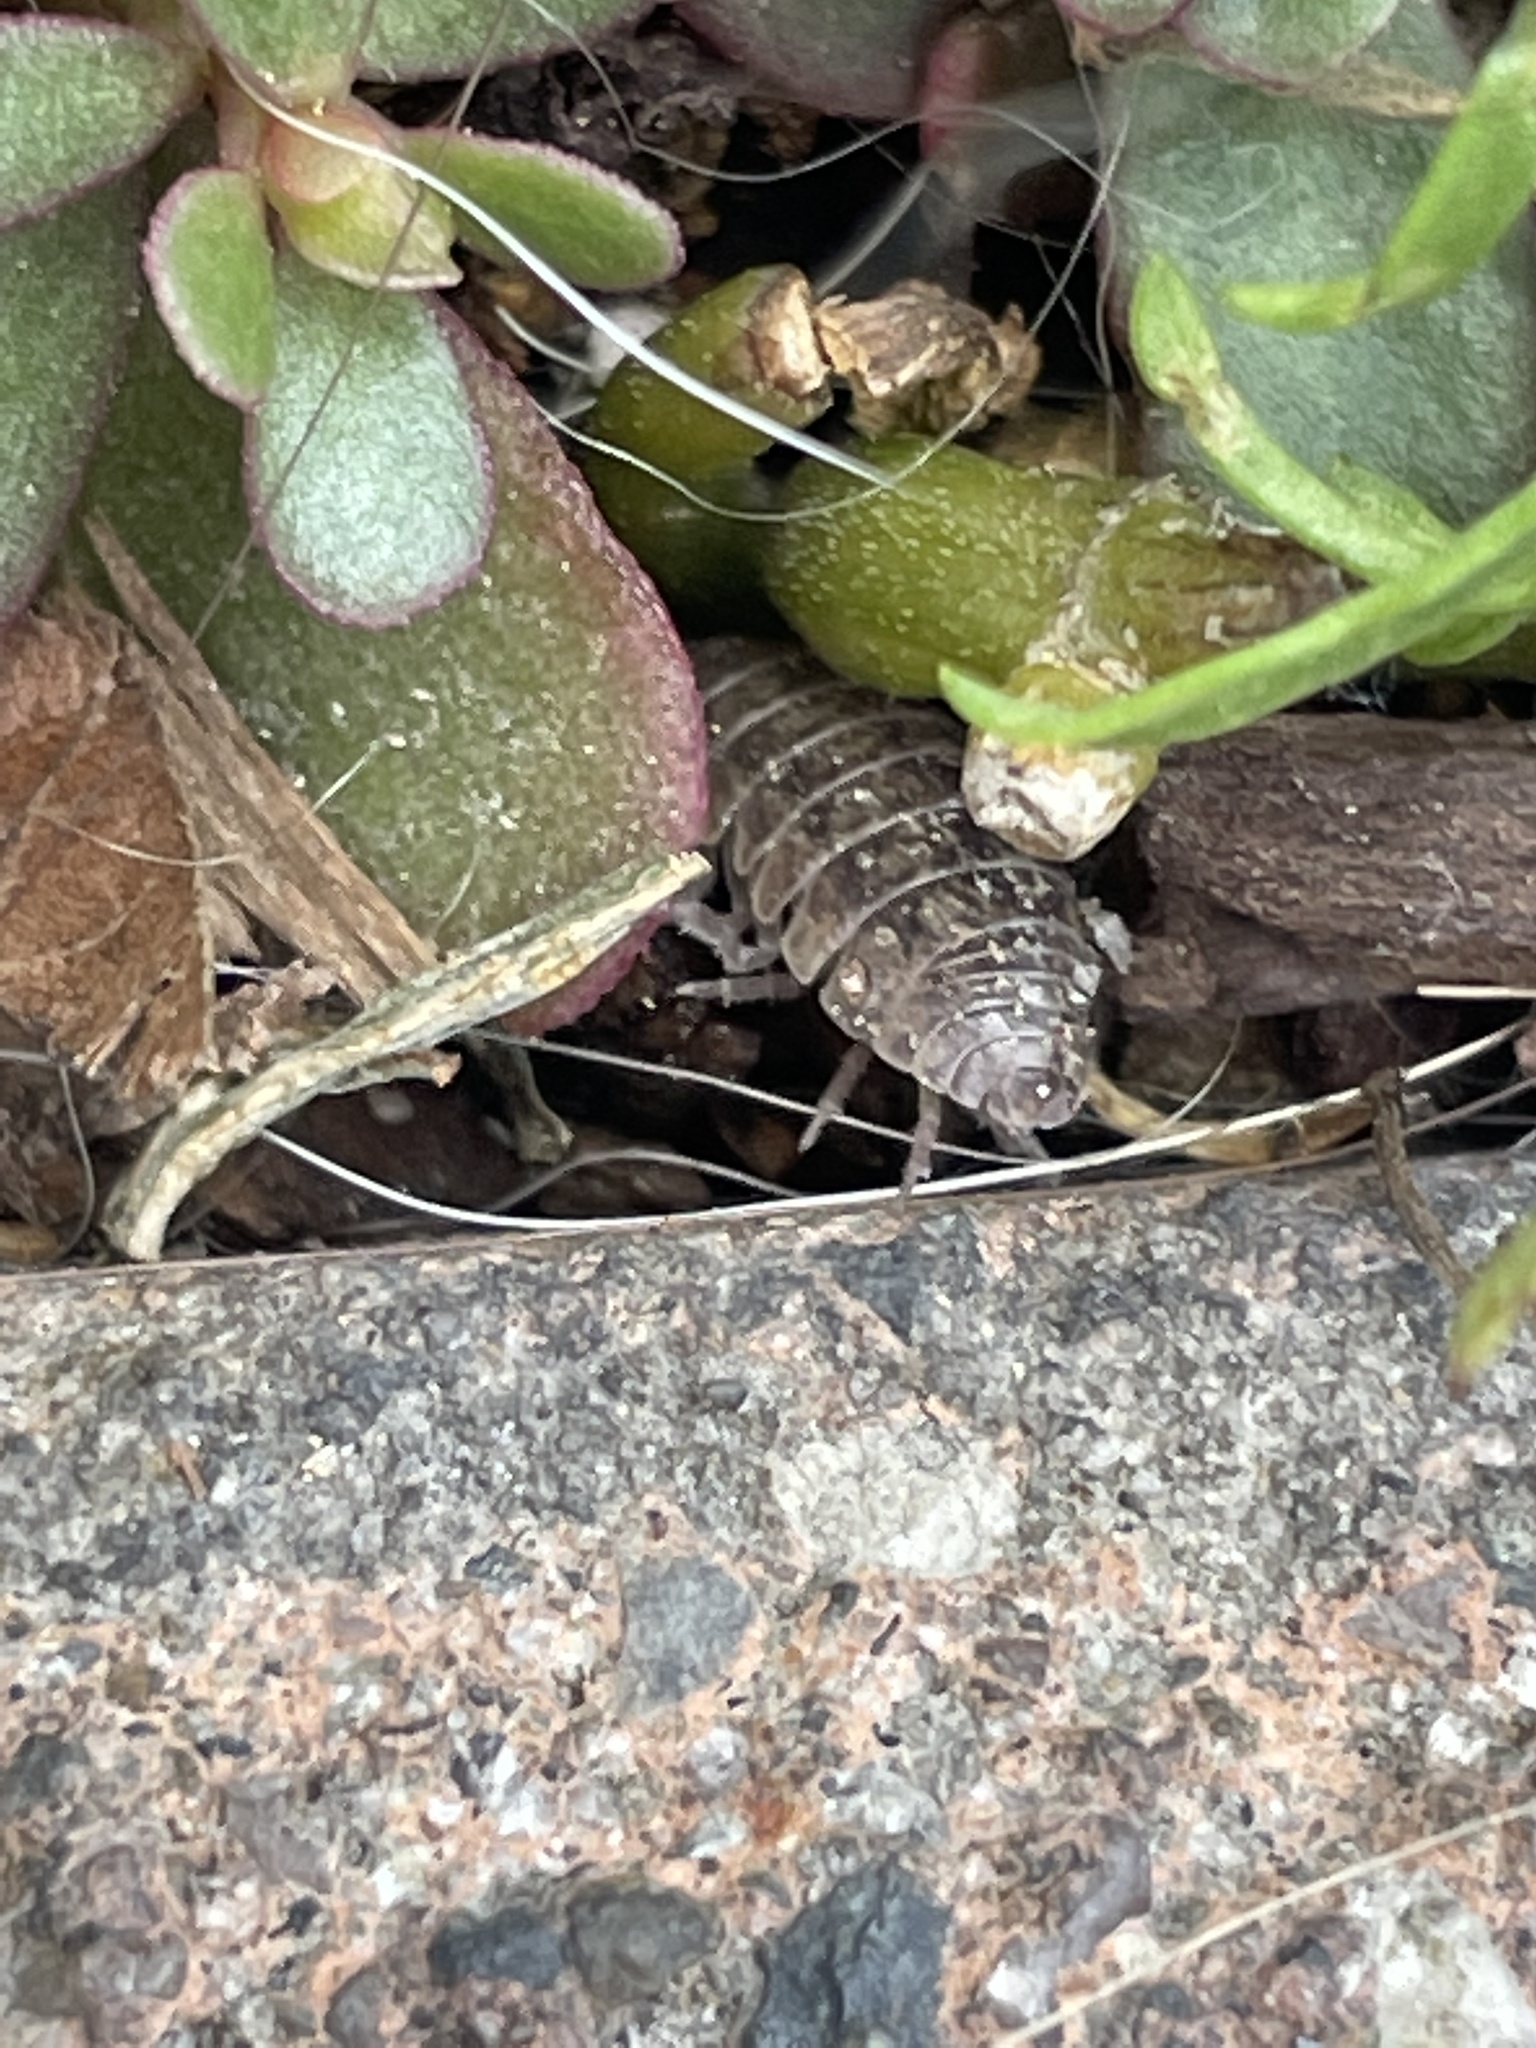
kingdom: Animalia
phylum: Arthropoda
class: Malacostraca
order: Isopoda
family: Armadillidiidae
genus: Armadillidium
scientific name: Armadillidium vulgare
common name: Common pill woodlouse
